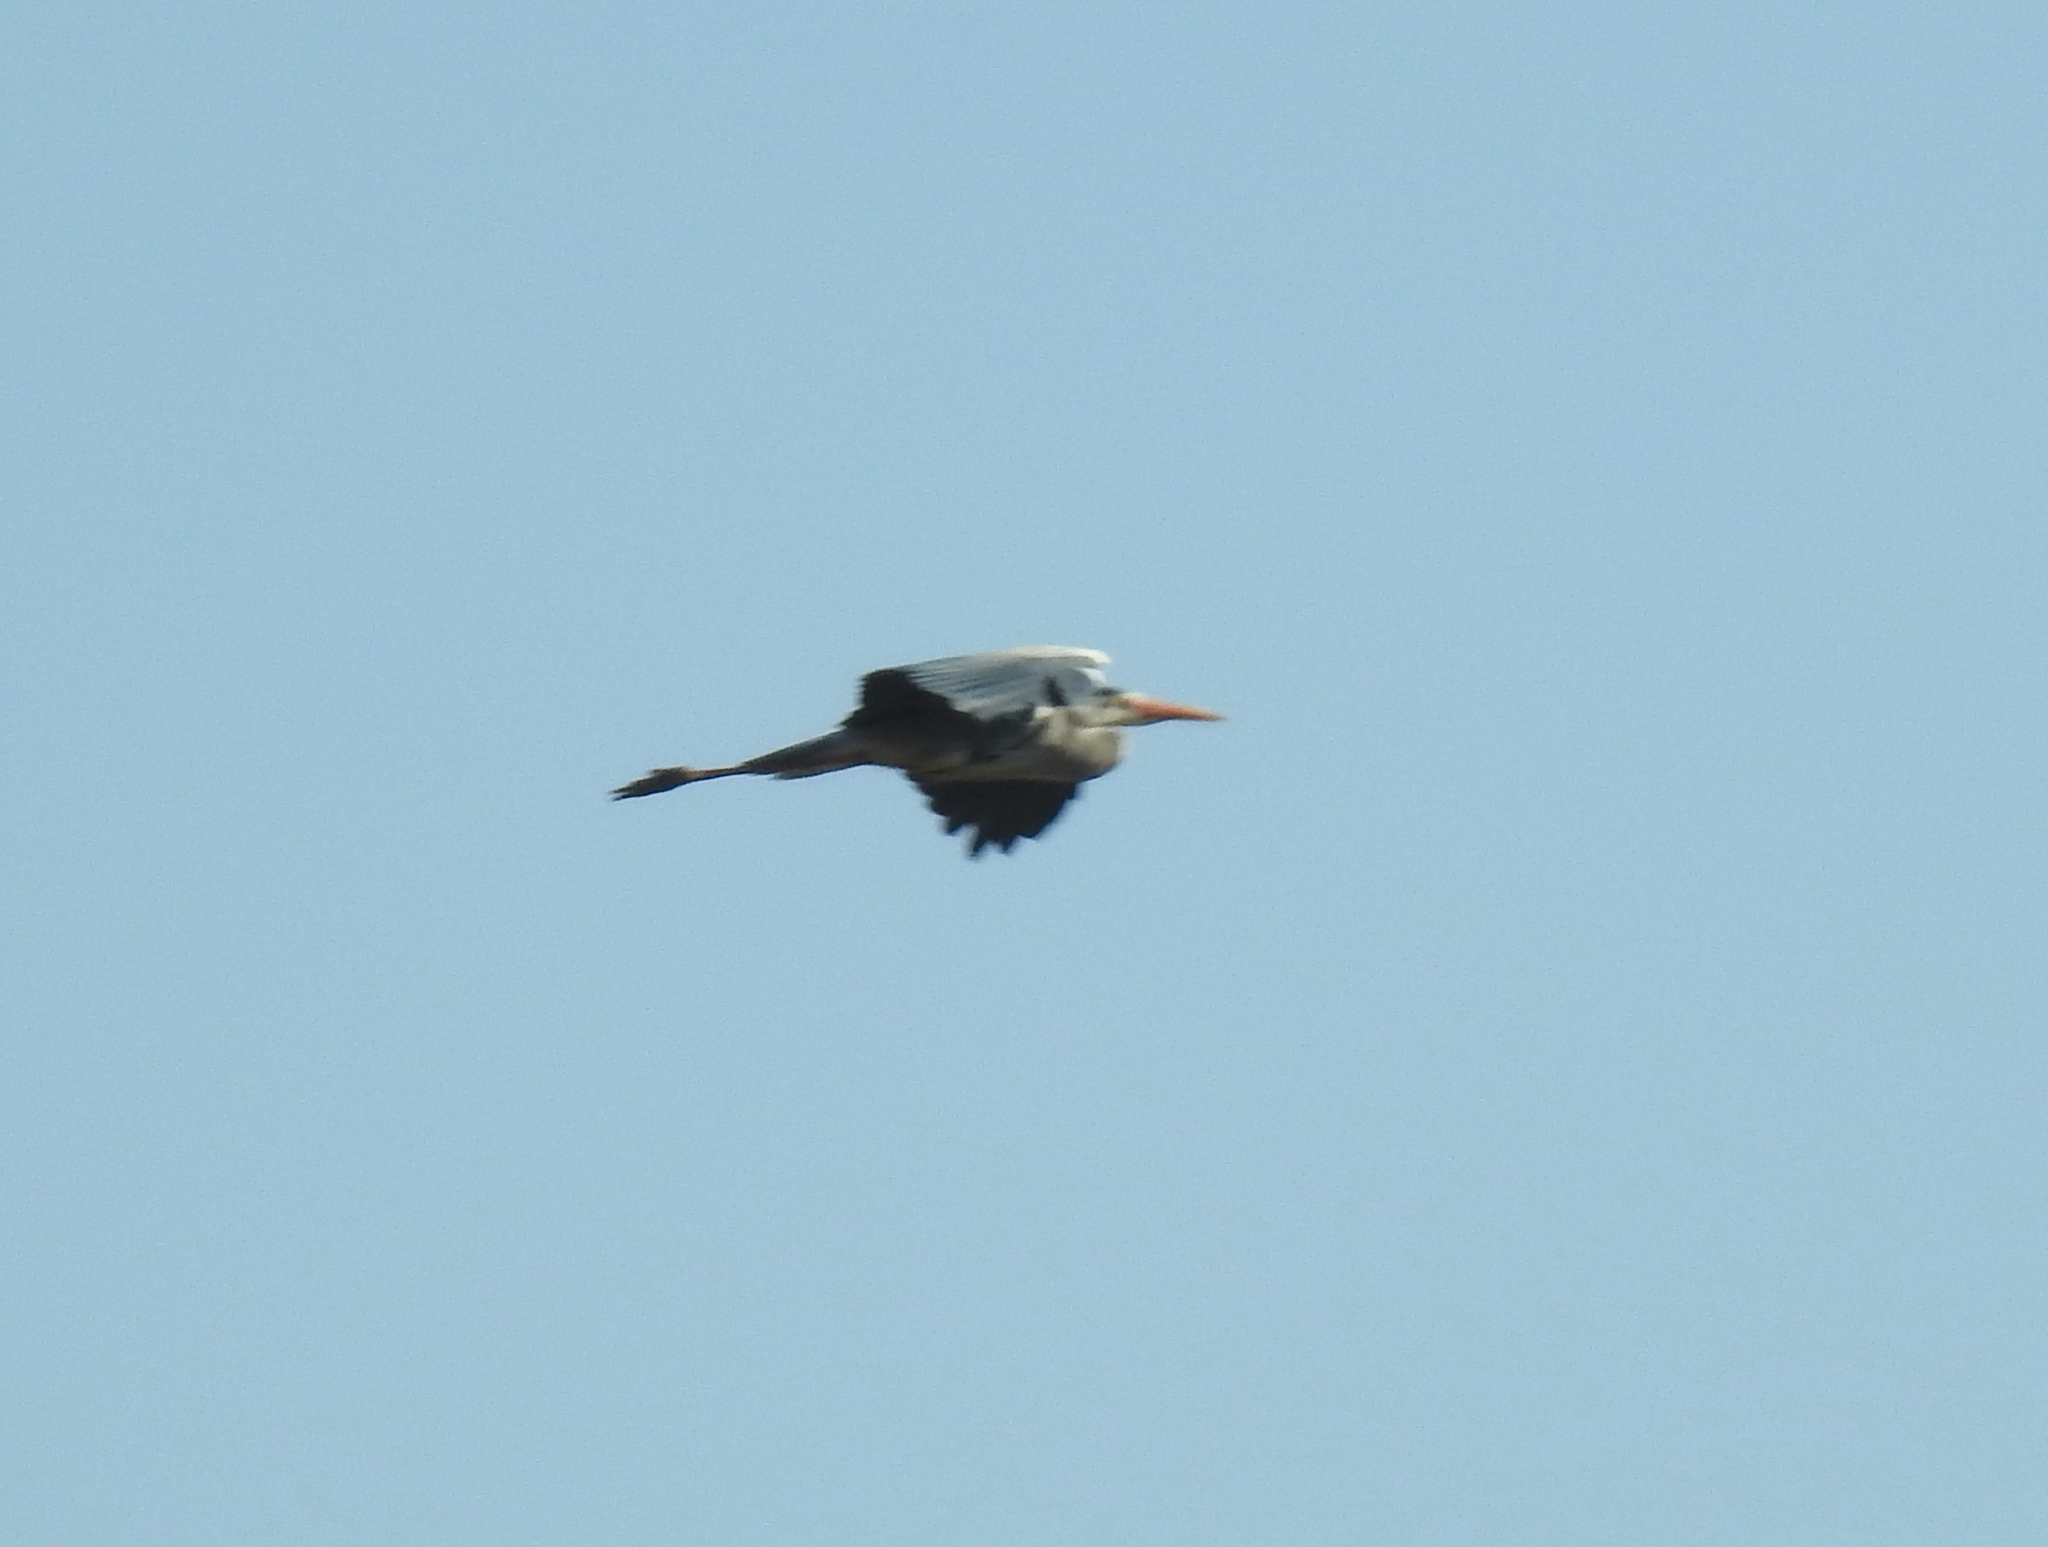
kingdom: Animalia
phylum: Chordata
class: Aves
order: Pelecaniformes
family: Ardeidae
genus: Ardea
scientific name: Ardea cinerea
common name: Grey heron
